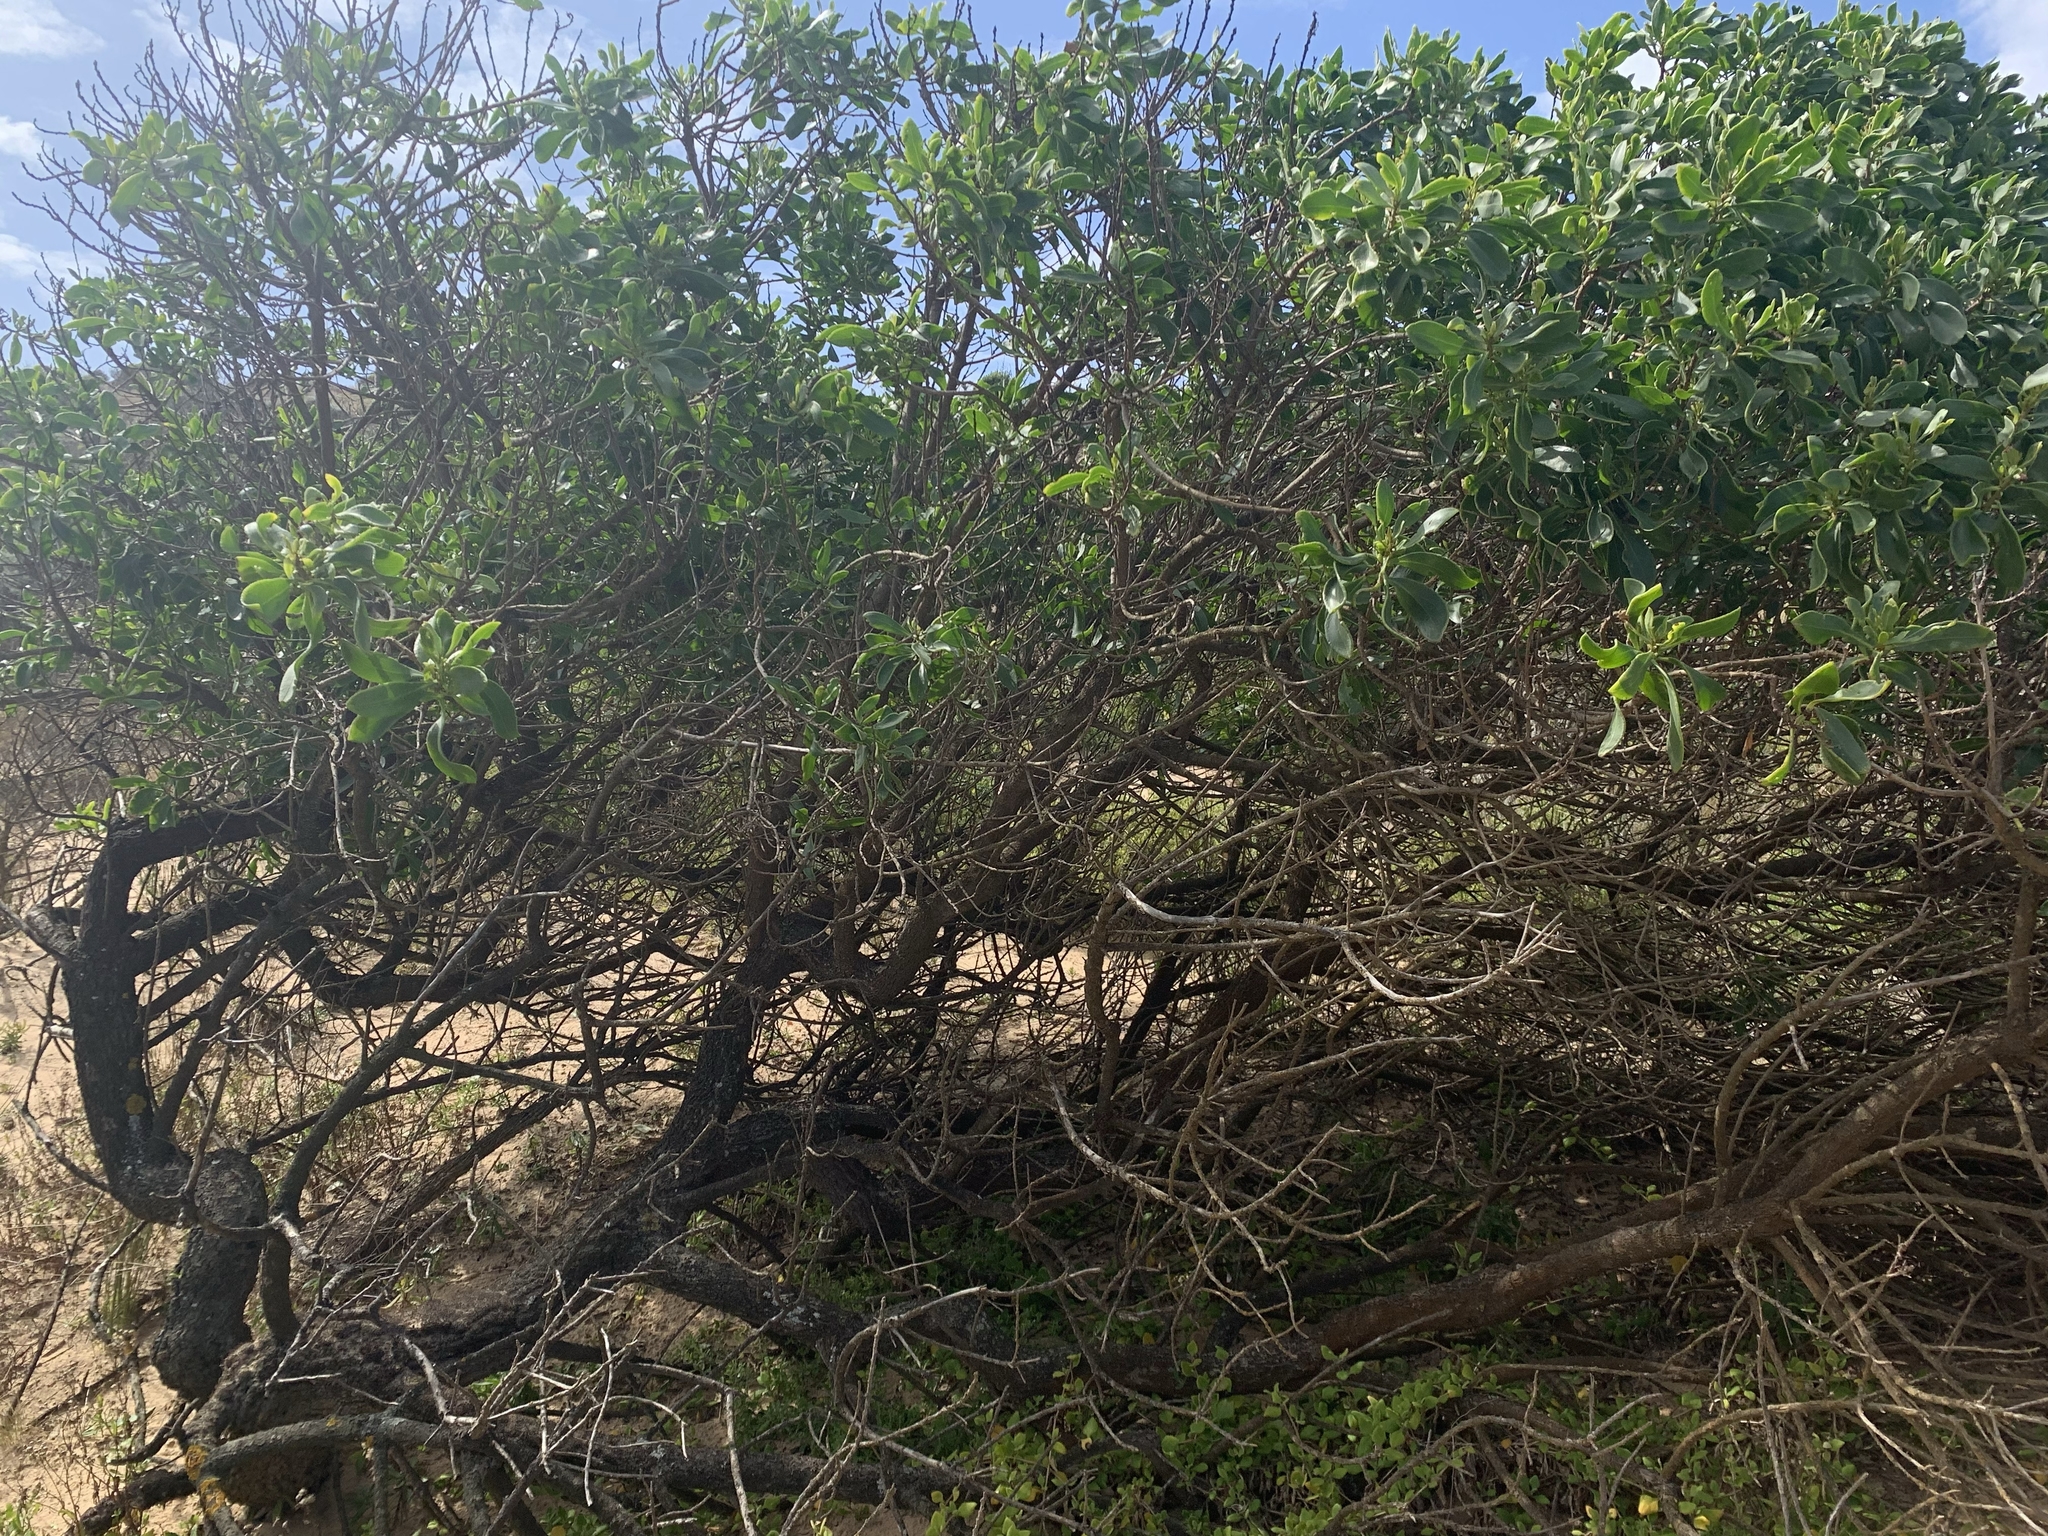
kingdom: Plantae
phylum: Tracheophyta
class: Magnoliopsida
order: Lamiales
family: Scrophulariaceae
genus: Myoporum
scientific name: Myoporum insulare
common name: Common boobialla
